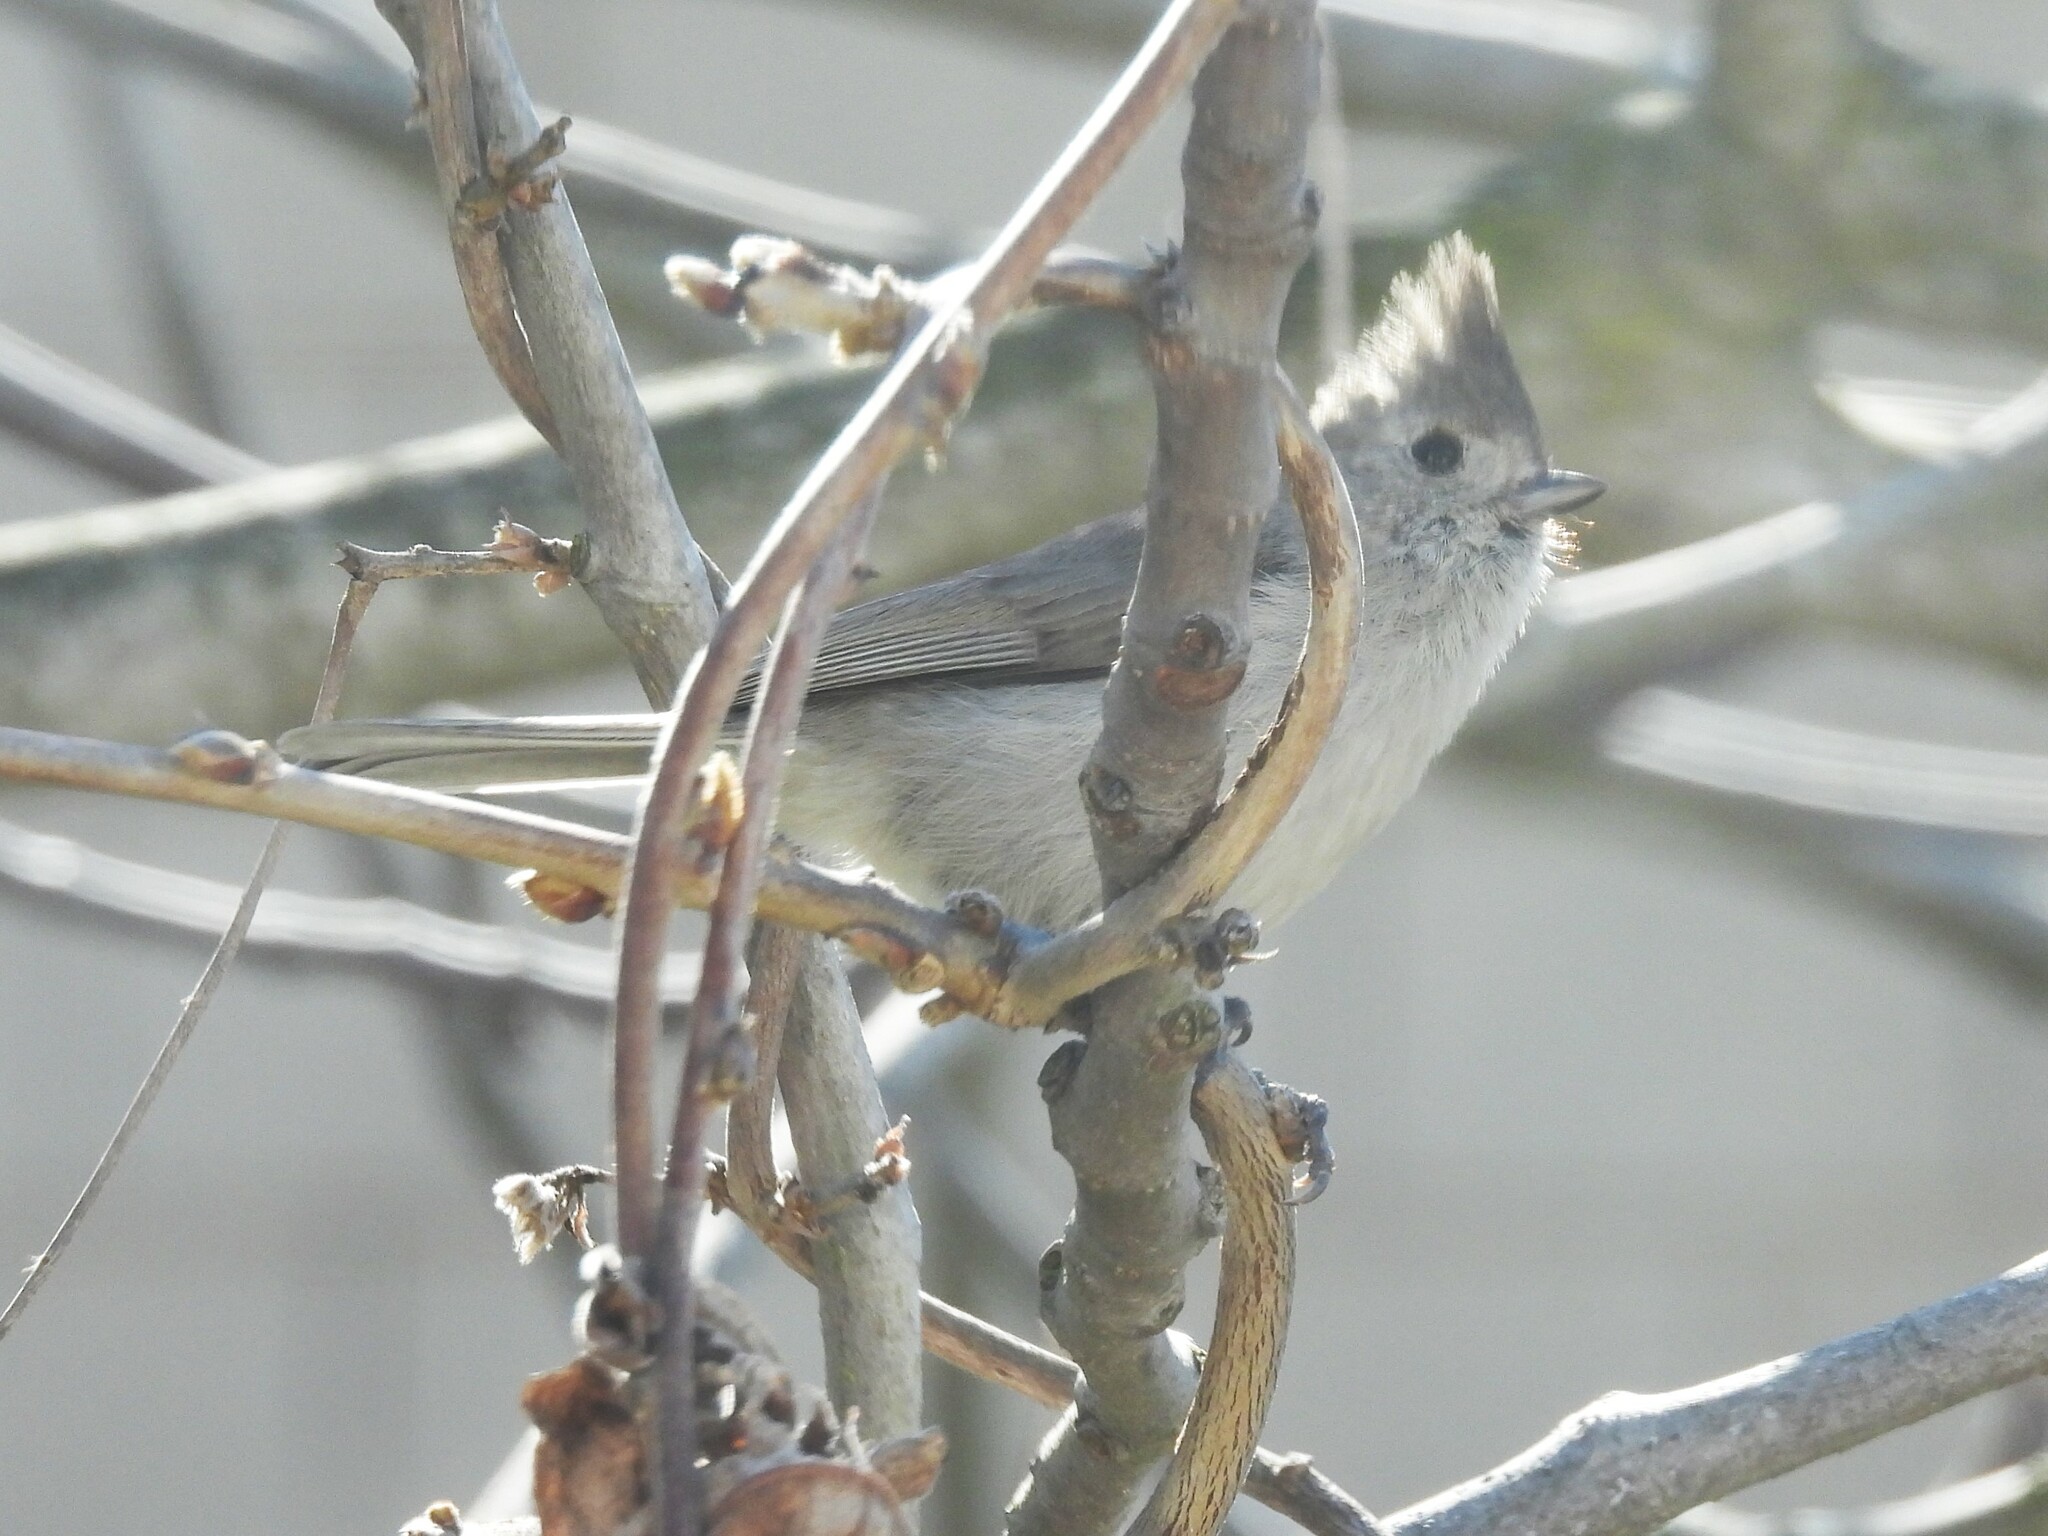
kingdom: Animalia
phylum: Chordata
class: Aves
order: Passeriformes
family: Paridae
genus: Baeolophus
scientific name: Baeolophus inornatus
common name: Oak titmouse
